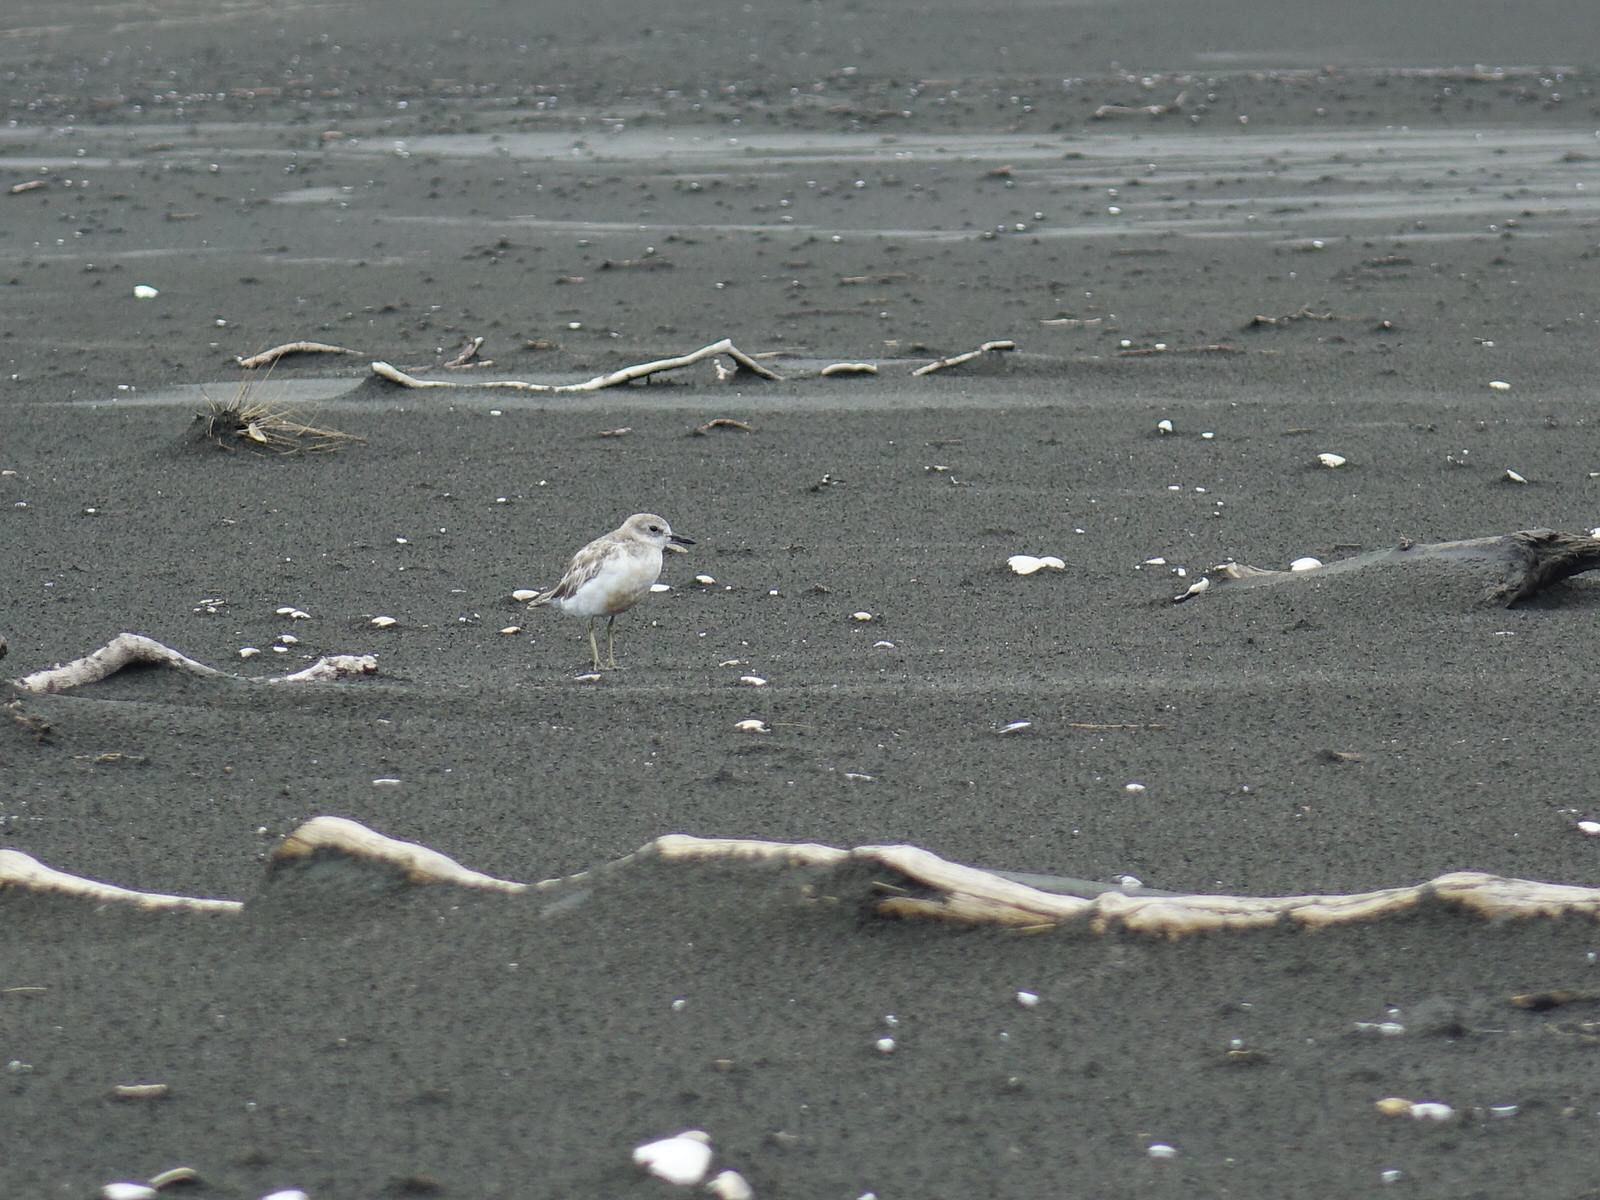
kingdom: Animalia
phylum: Chordata
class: Aves
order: Charadriiformes
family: Charadriidae
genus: Anarhynchus
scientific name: Anarhynchus
